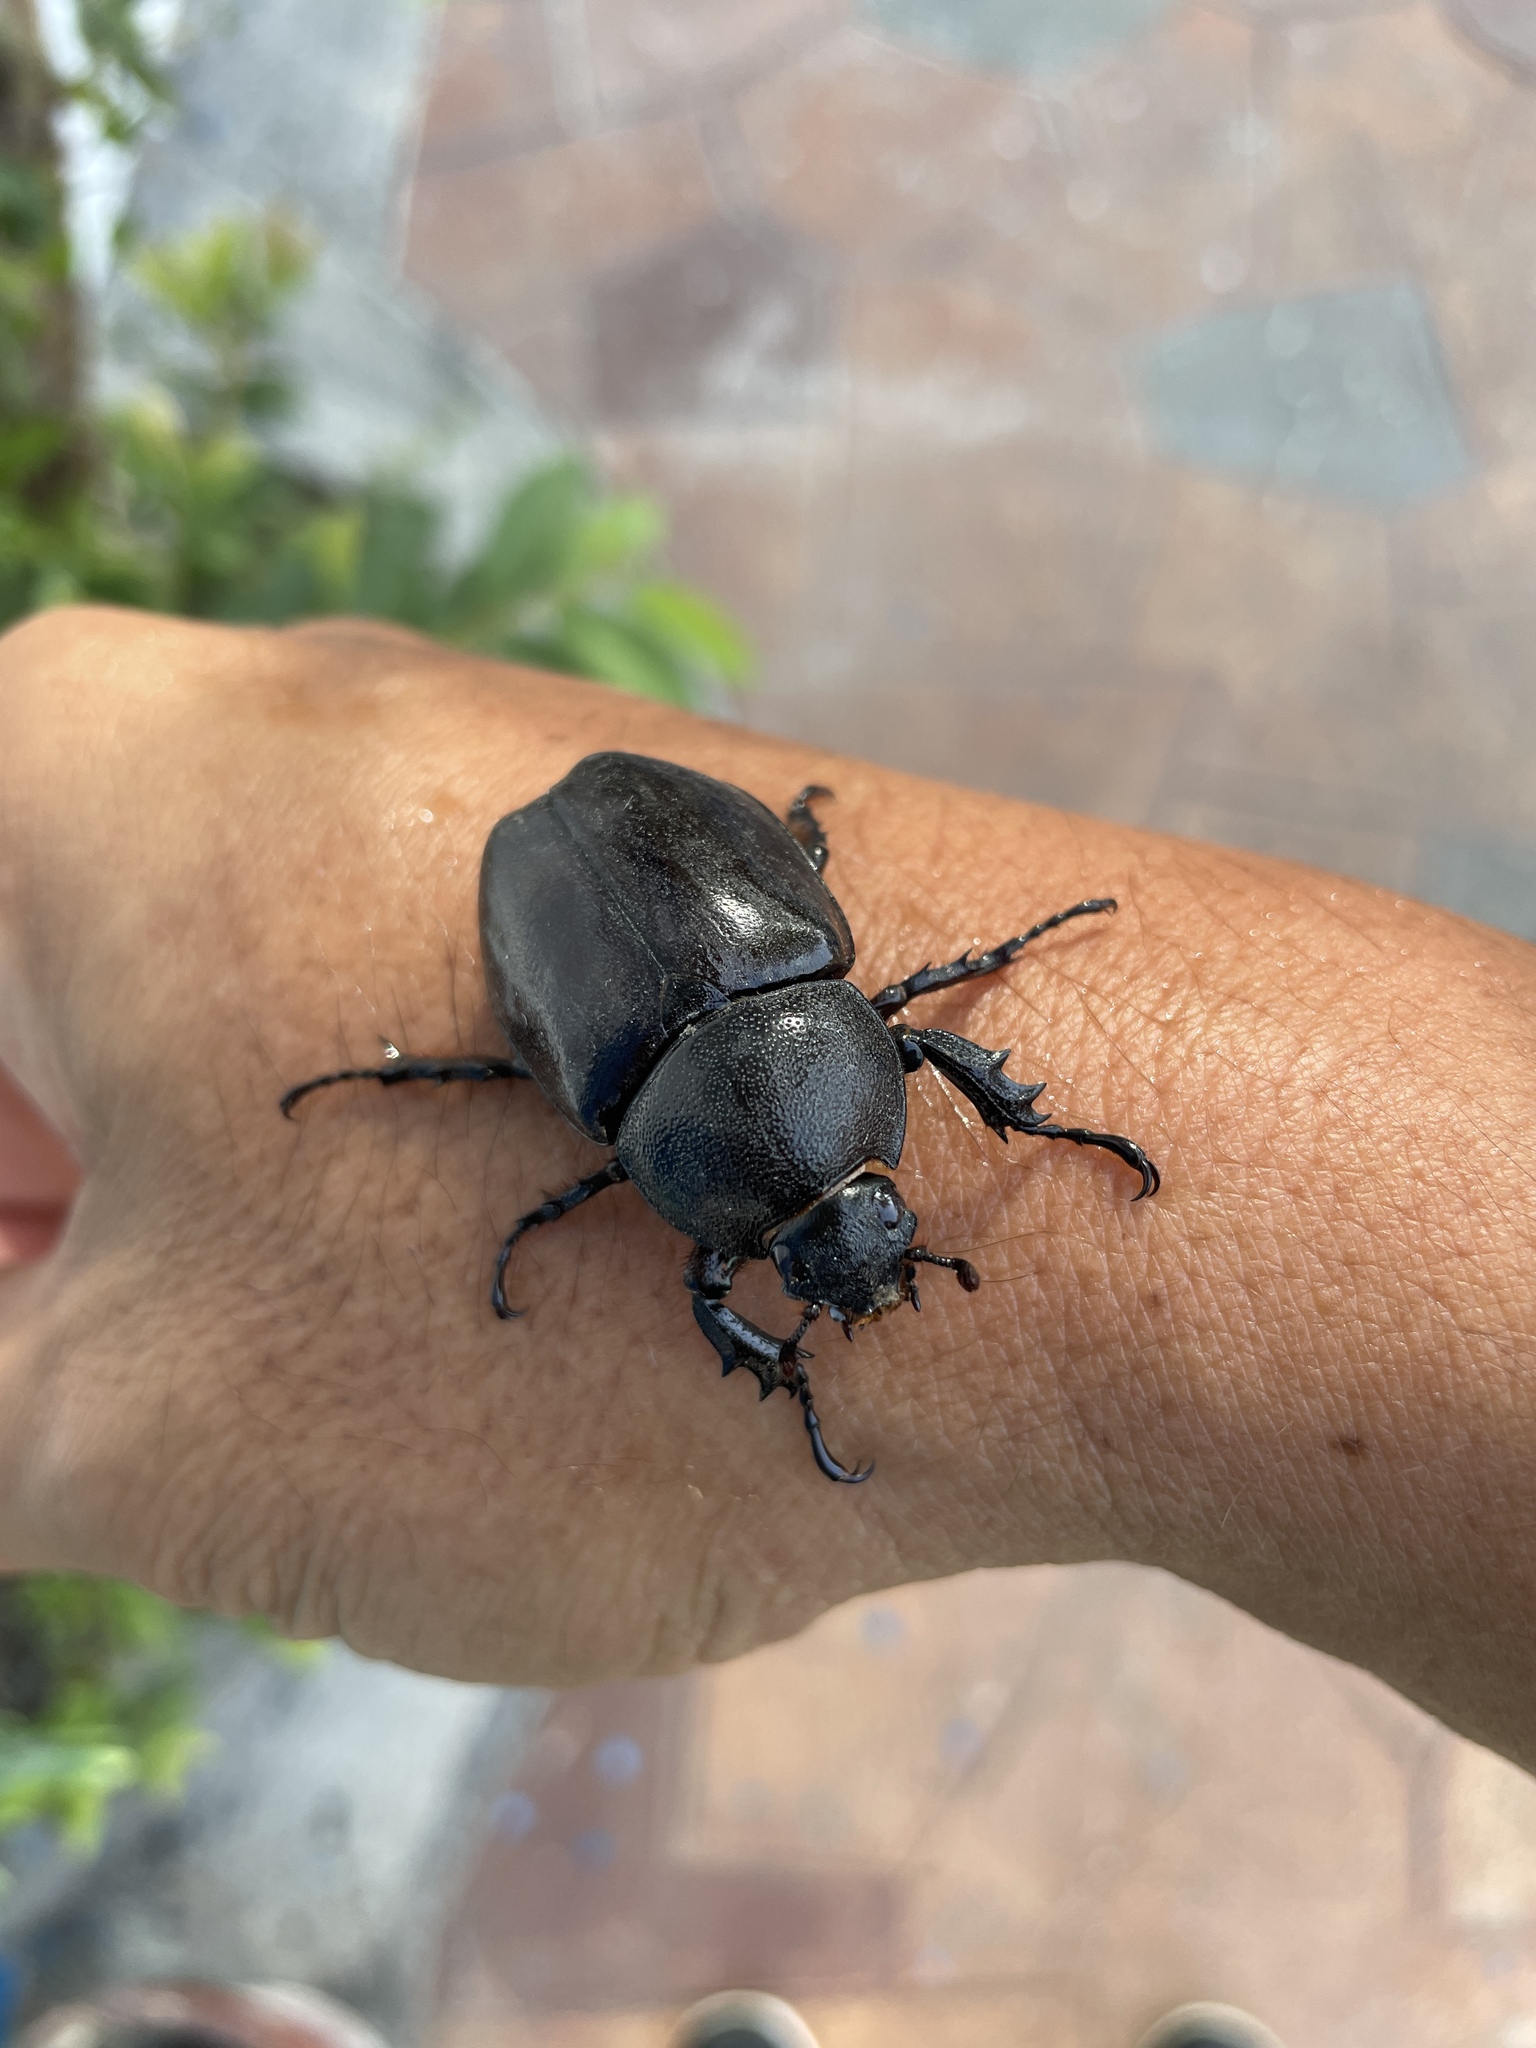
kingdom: Animalia
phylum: Arthropoda
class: Insecta
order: Coleoptera
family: Scarabaeidae
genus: Xylotrupes
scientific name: Xylotrupes philippinensis
